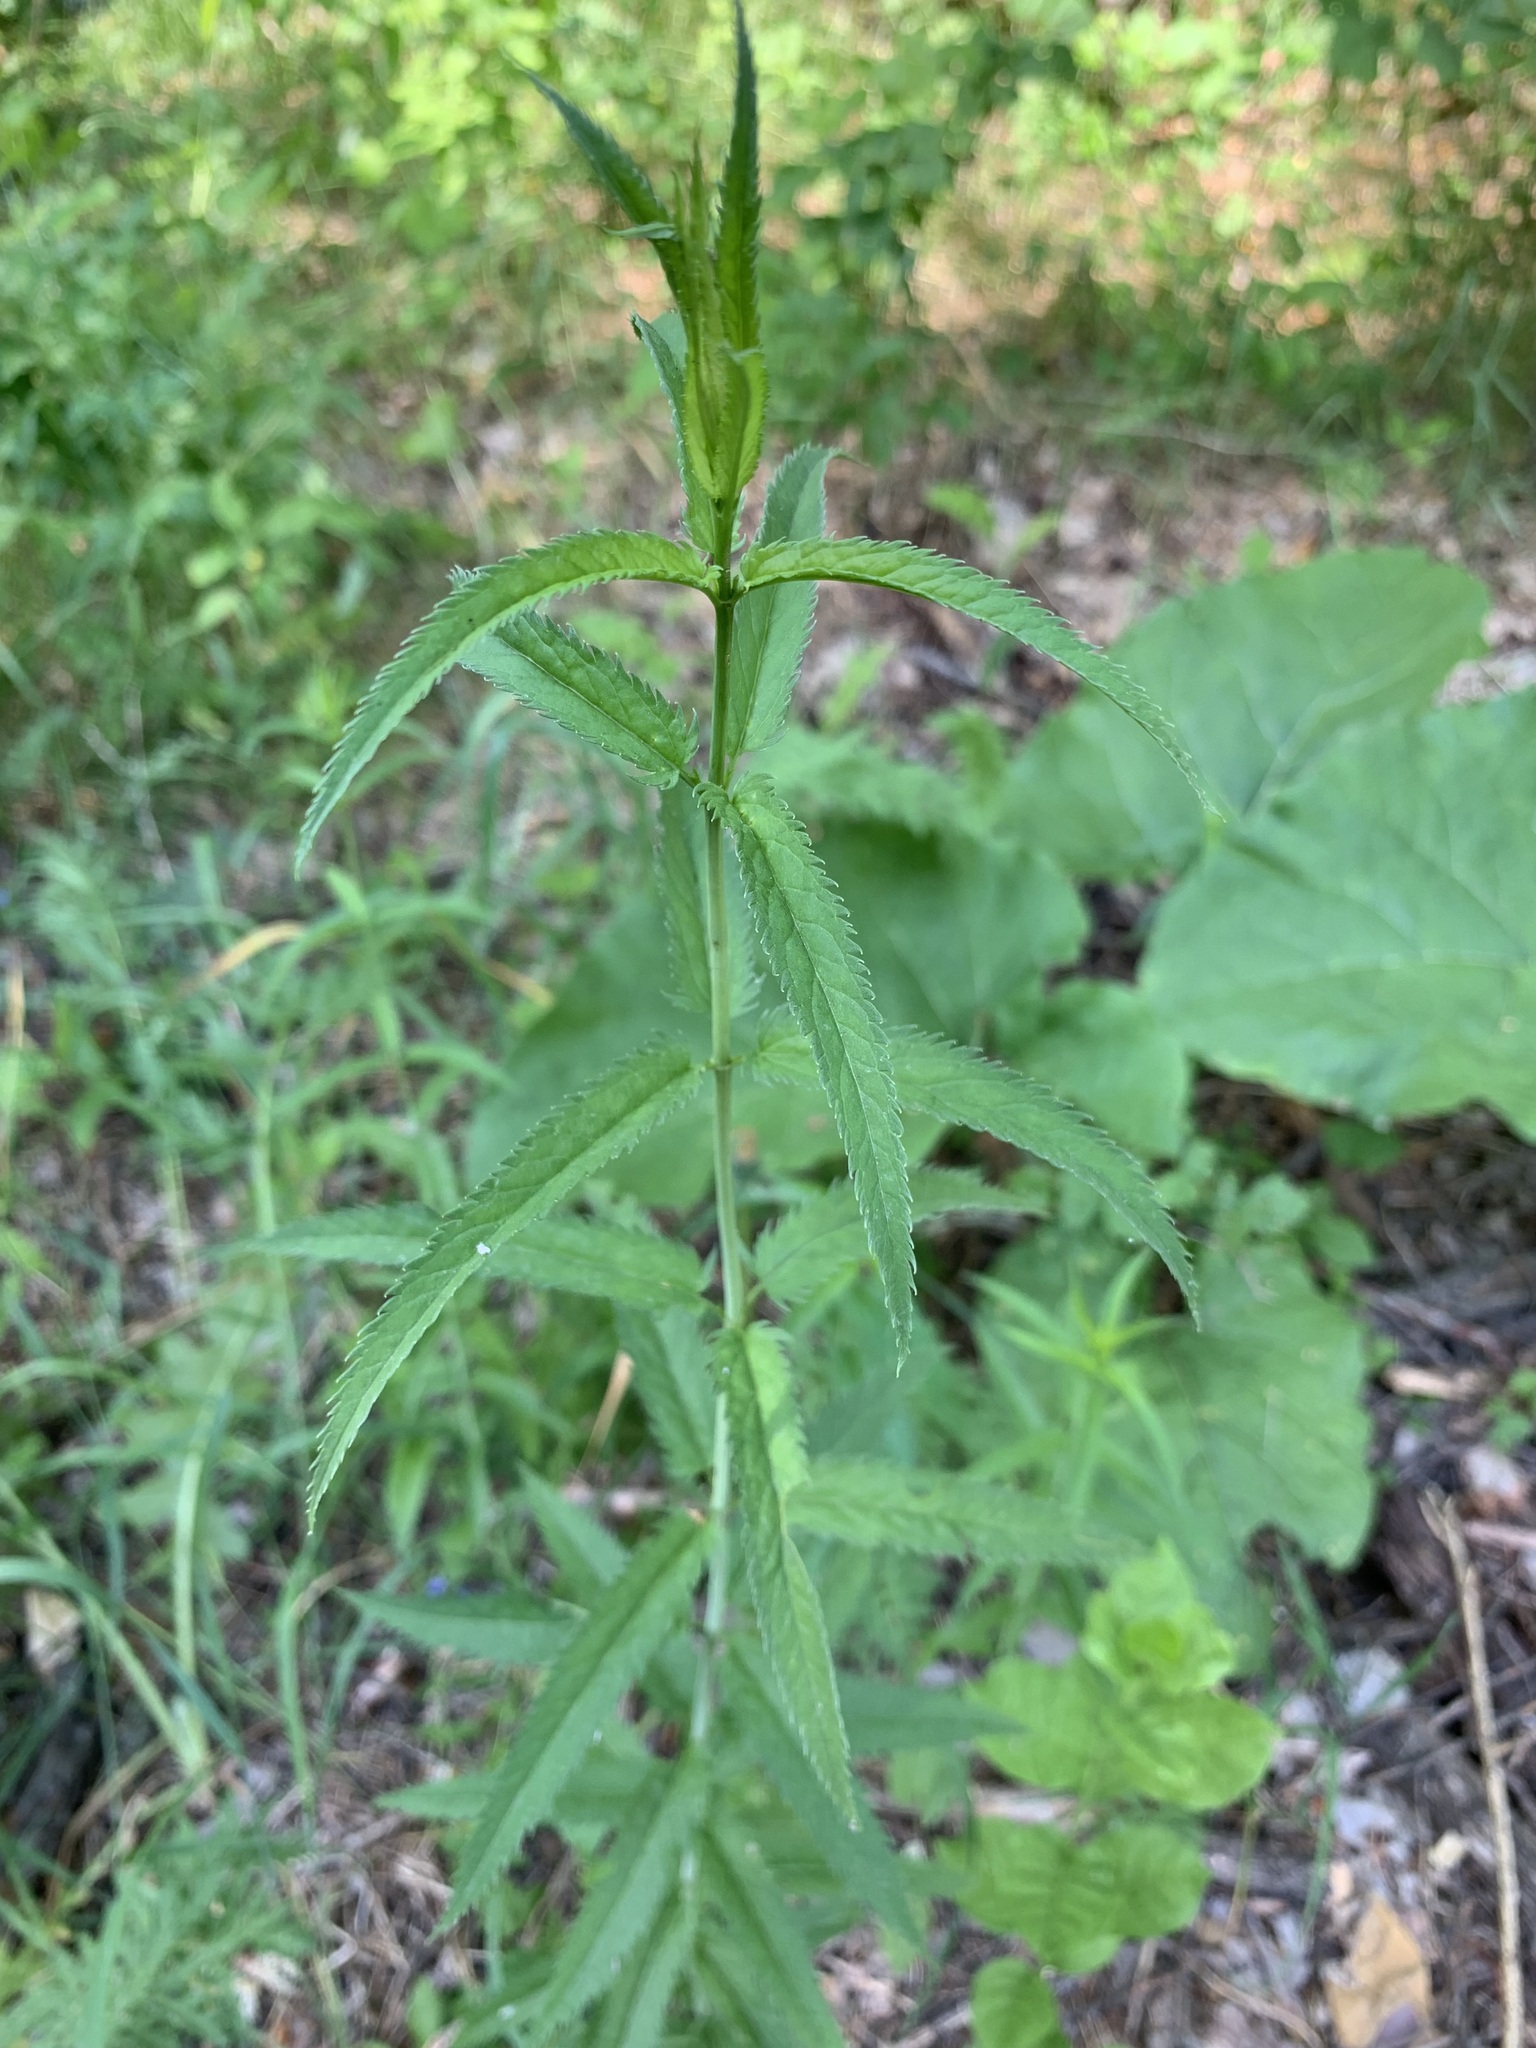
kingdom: Plantae
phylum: Tracheophyta
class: Magnoliopsida
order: Lamiales
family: Plantaginaceae
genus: Veronica
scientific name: Veronica longifolia
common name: Garden speedwell
